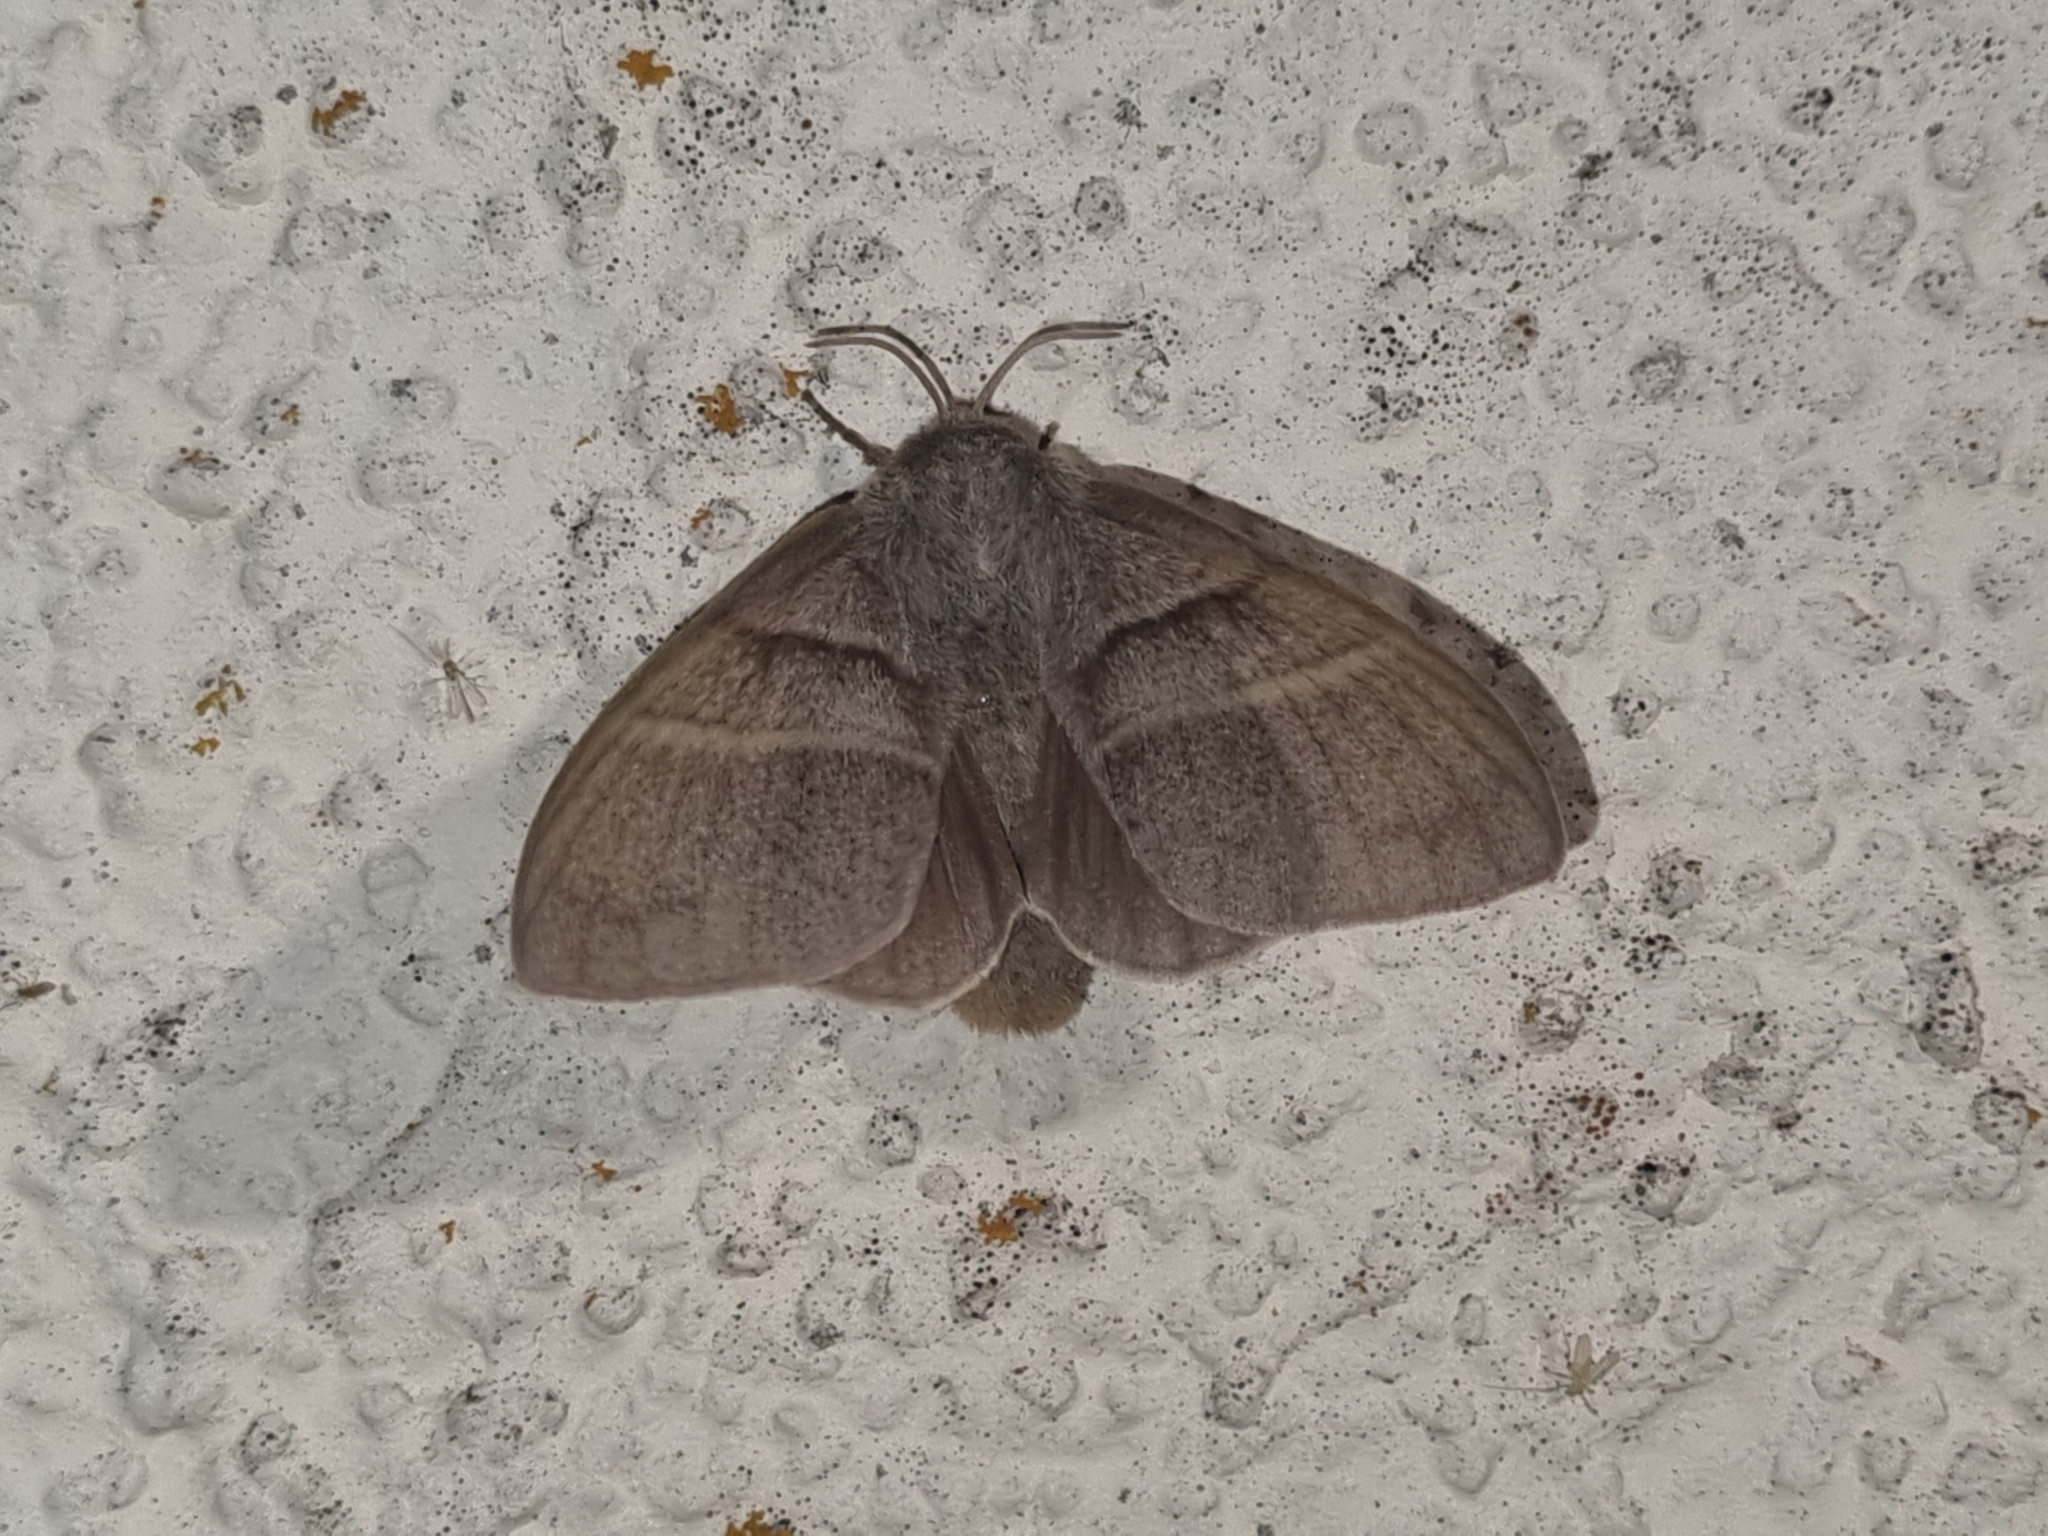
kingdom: Animalia
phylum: Arthropoda
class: Insecta
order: Lepidoptera
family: Lasiocampidae
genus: Macrothylacia
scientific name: Macrothylacia rubi
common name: Fox moth
